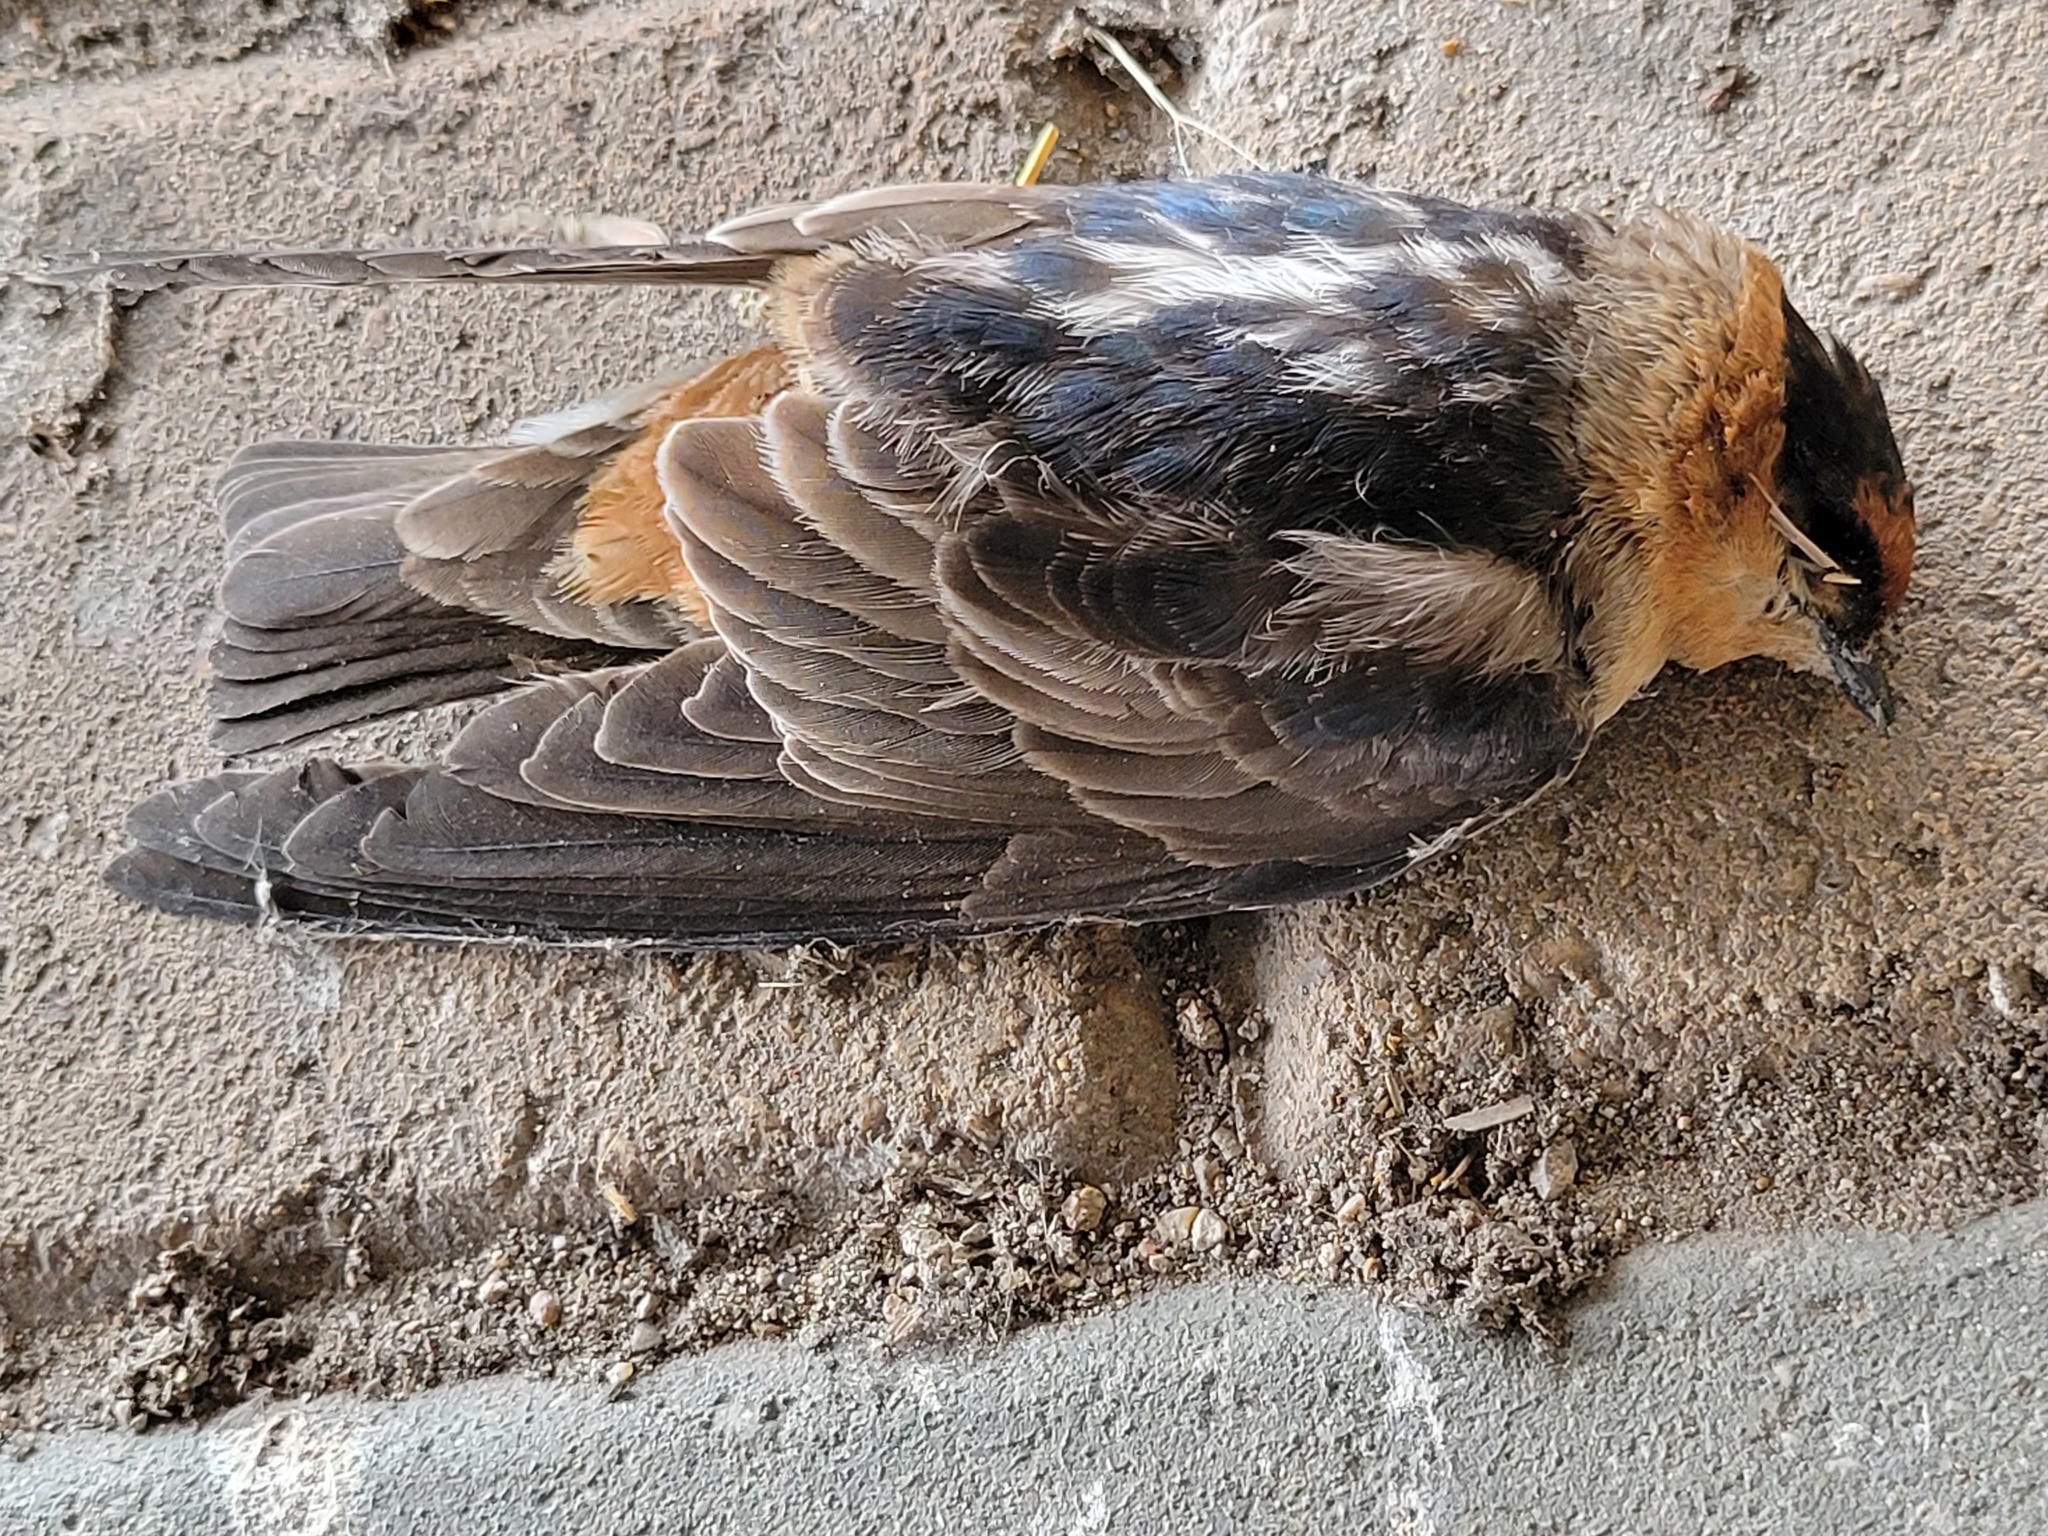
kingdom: Animalia
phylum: Chordata
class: Aves
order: Passeriformes
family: Hirundinidae
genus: Petrochelidon
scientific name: Petrochelidon fulva
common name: Cave swallow
